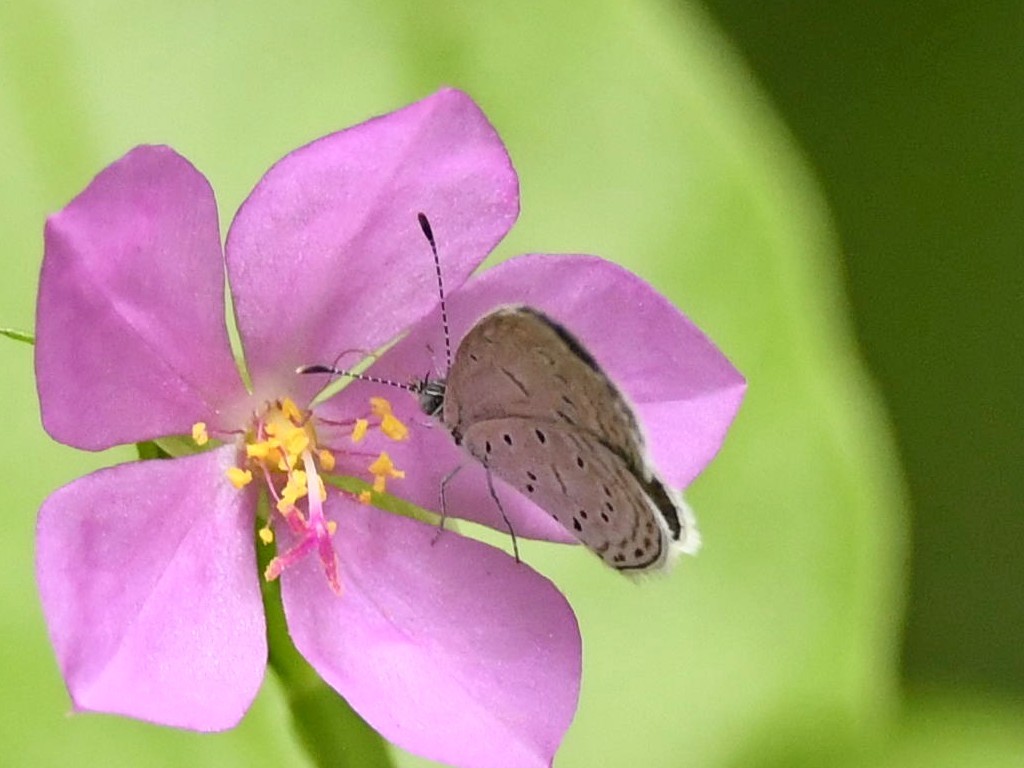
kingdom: Animalia
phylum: Arthropoda
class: Insecta
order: Lepidoptera
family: Lycaenidae
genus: Zizina
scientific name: Zizina otis
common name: Lesser grass blue
